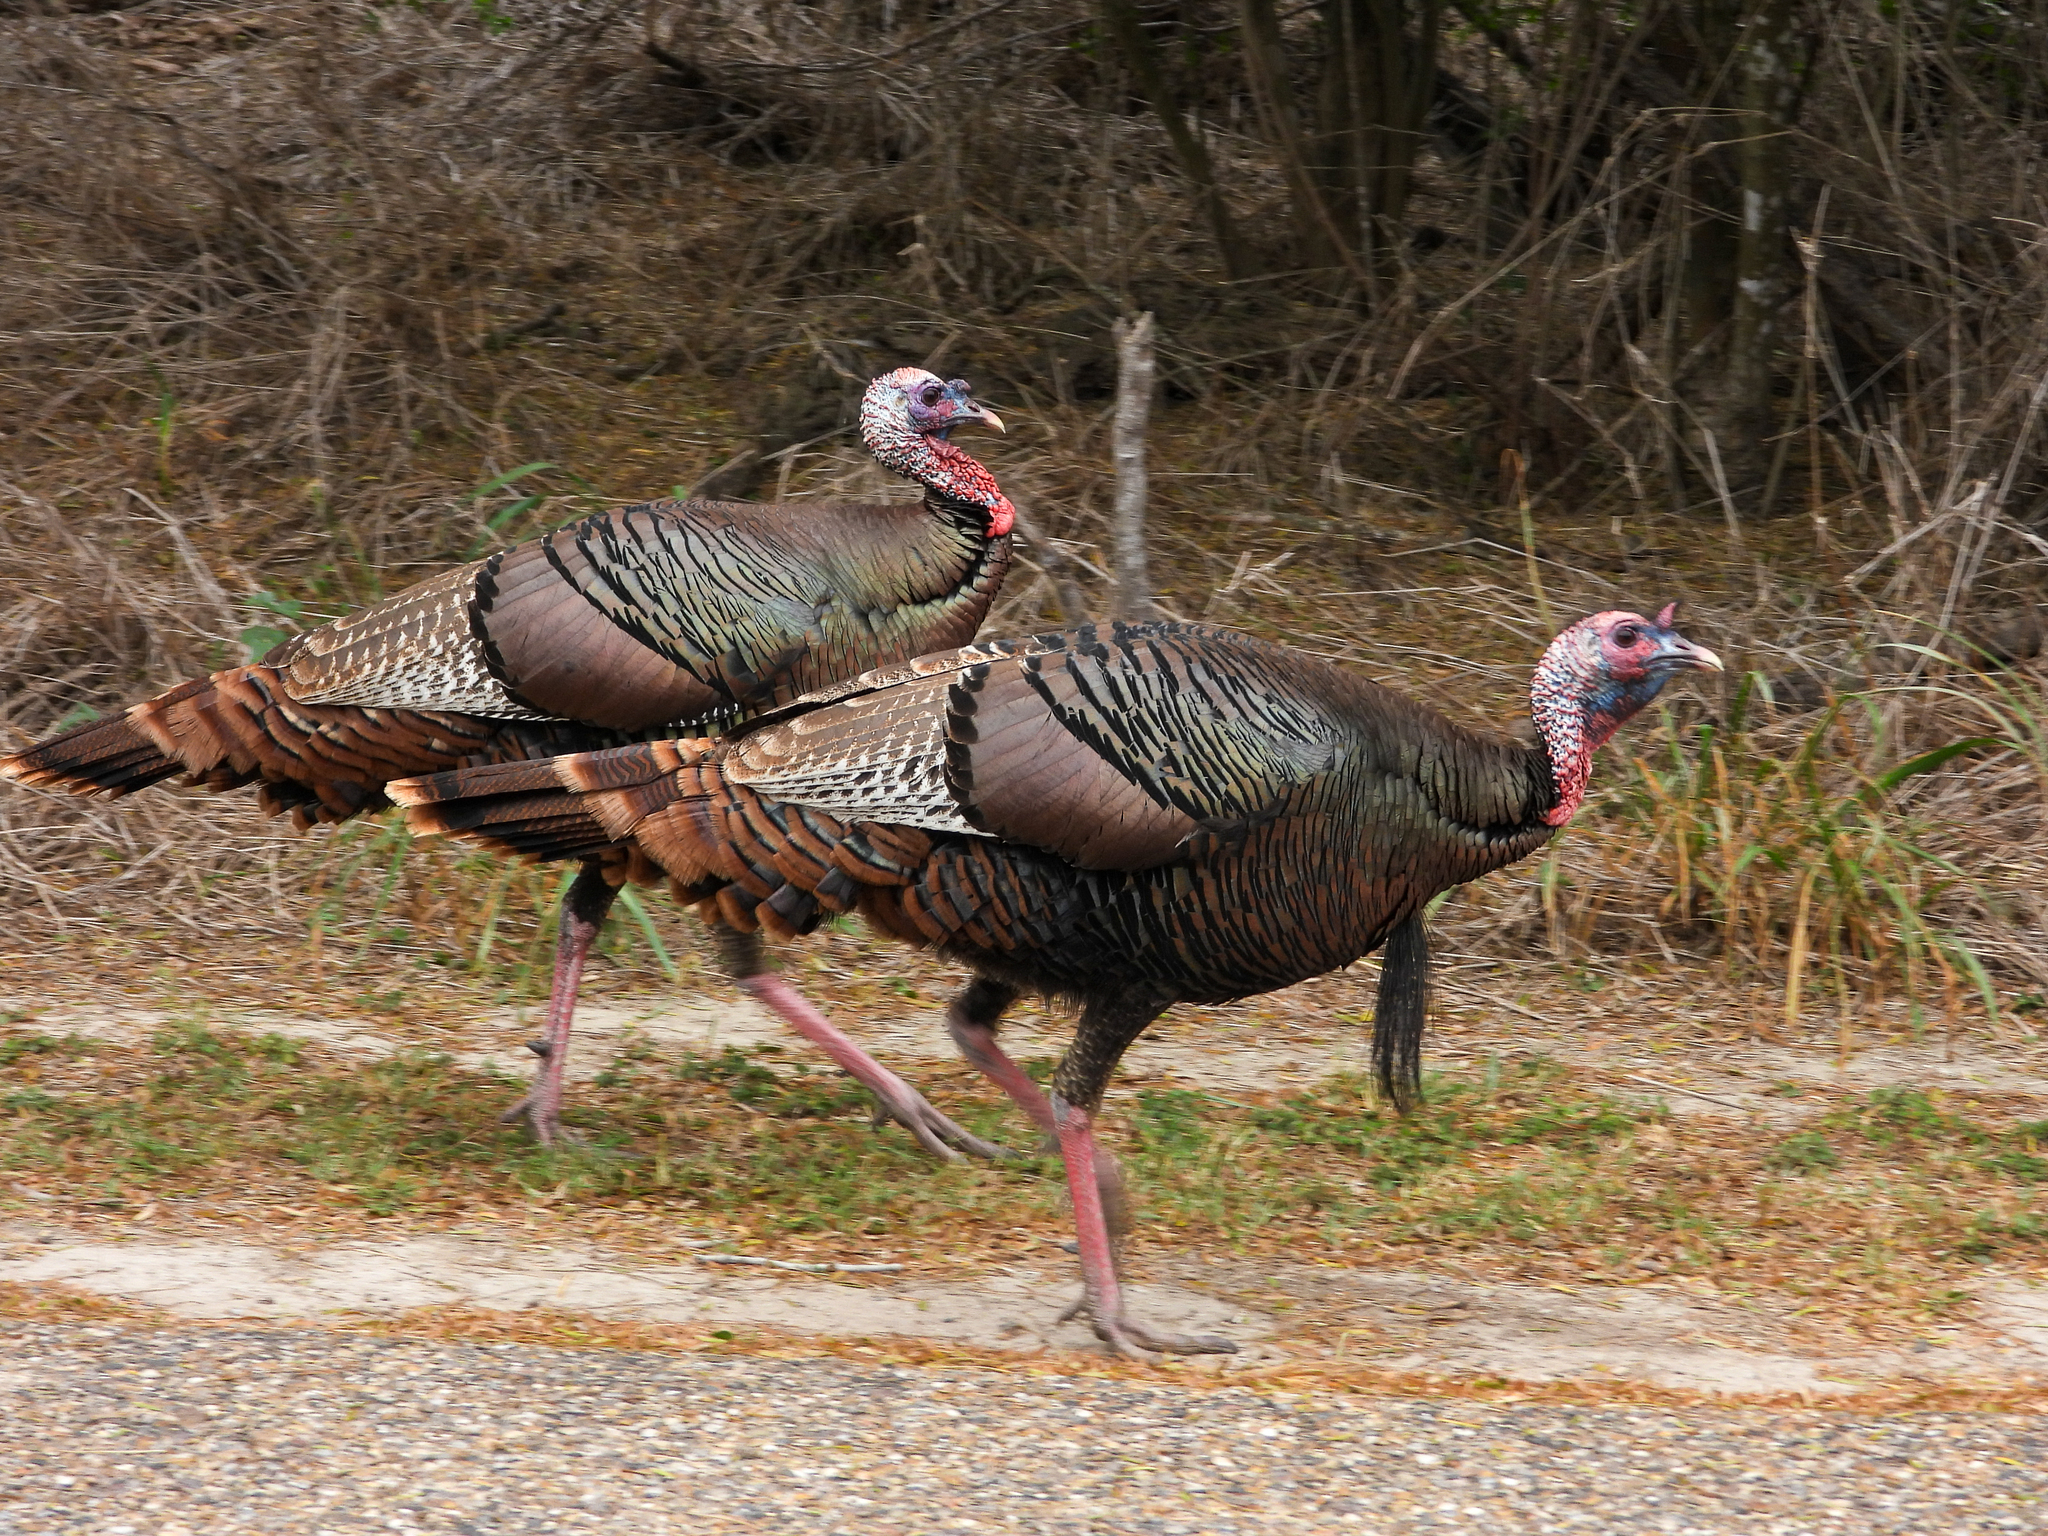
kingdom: Animalia
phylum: Chordata
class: Aves
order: Galliformes
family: Phasianidae
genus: Meleagris
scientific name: Meleagris gallopavo
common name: Wild turkey
